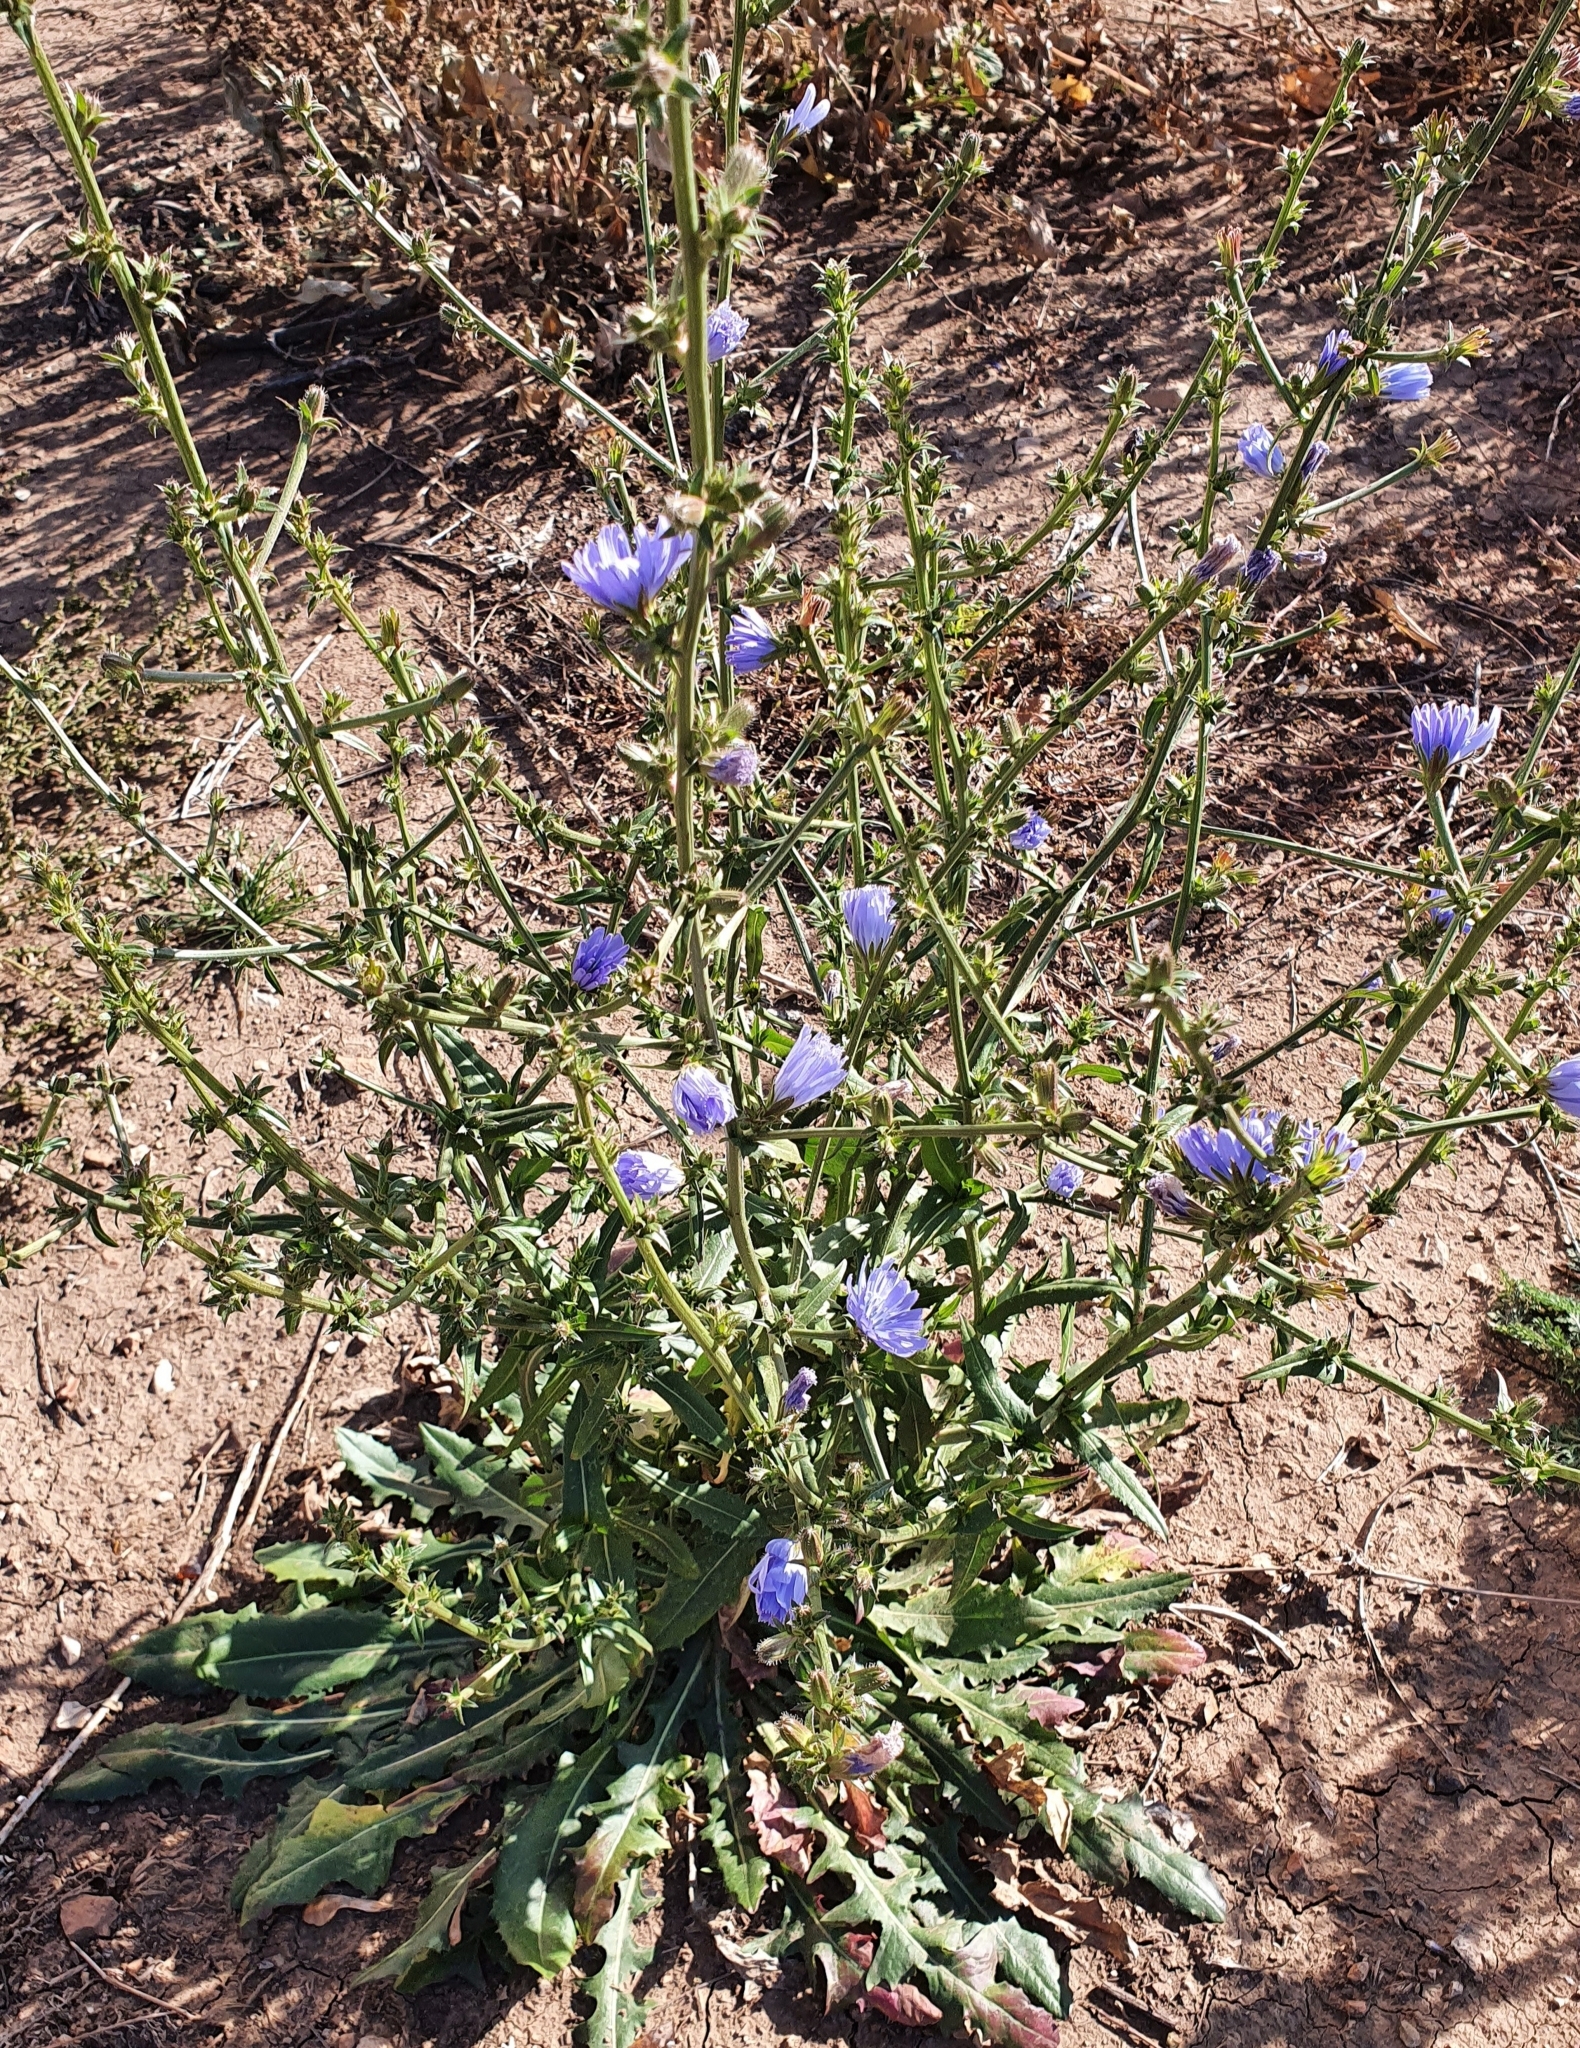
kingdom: Plantae
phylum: Tracheophyta
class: Magnoliopsida
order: Asterales
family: Asteraceae
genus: Cichorium
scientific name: Cichorium intybus
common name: Chicory
